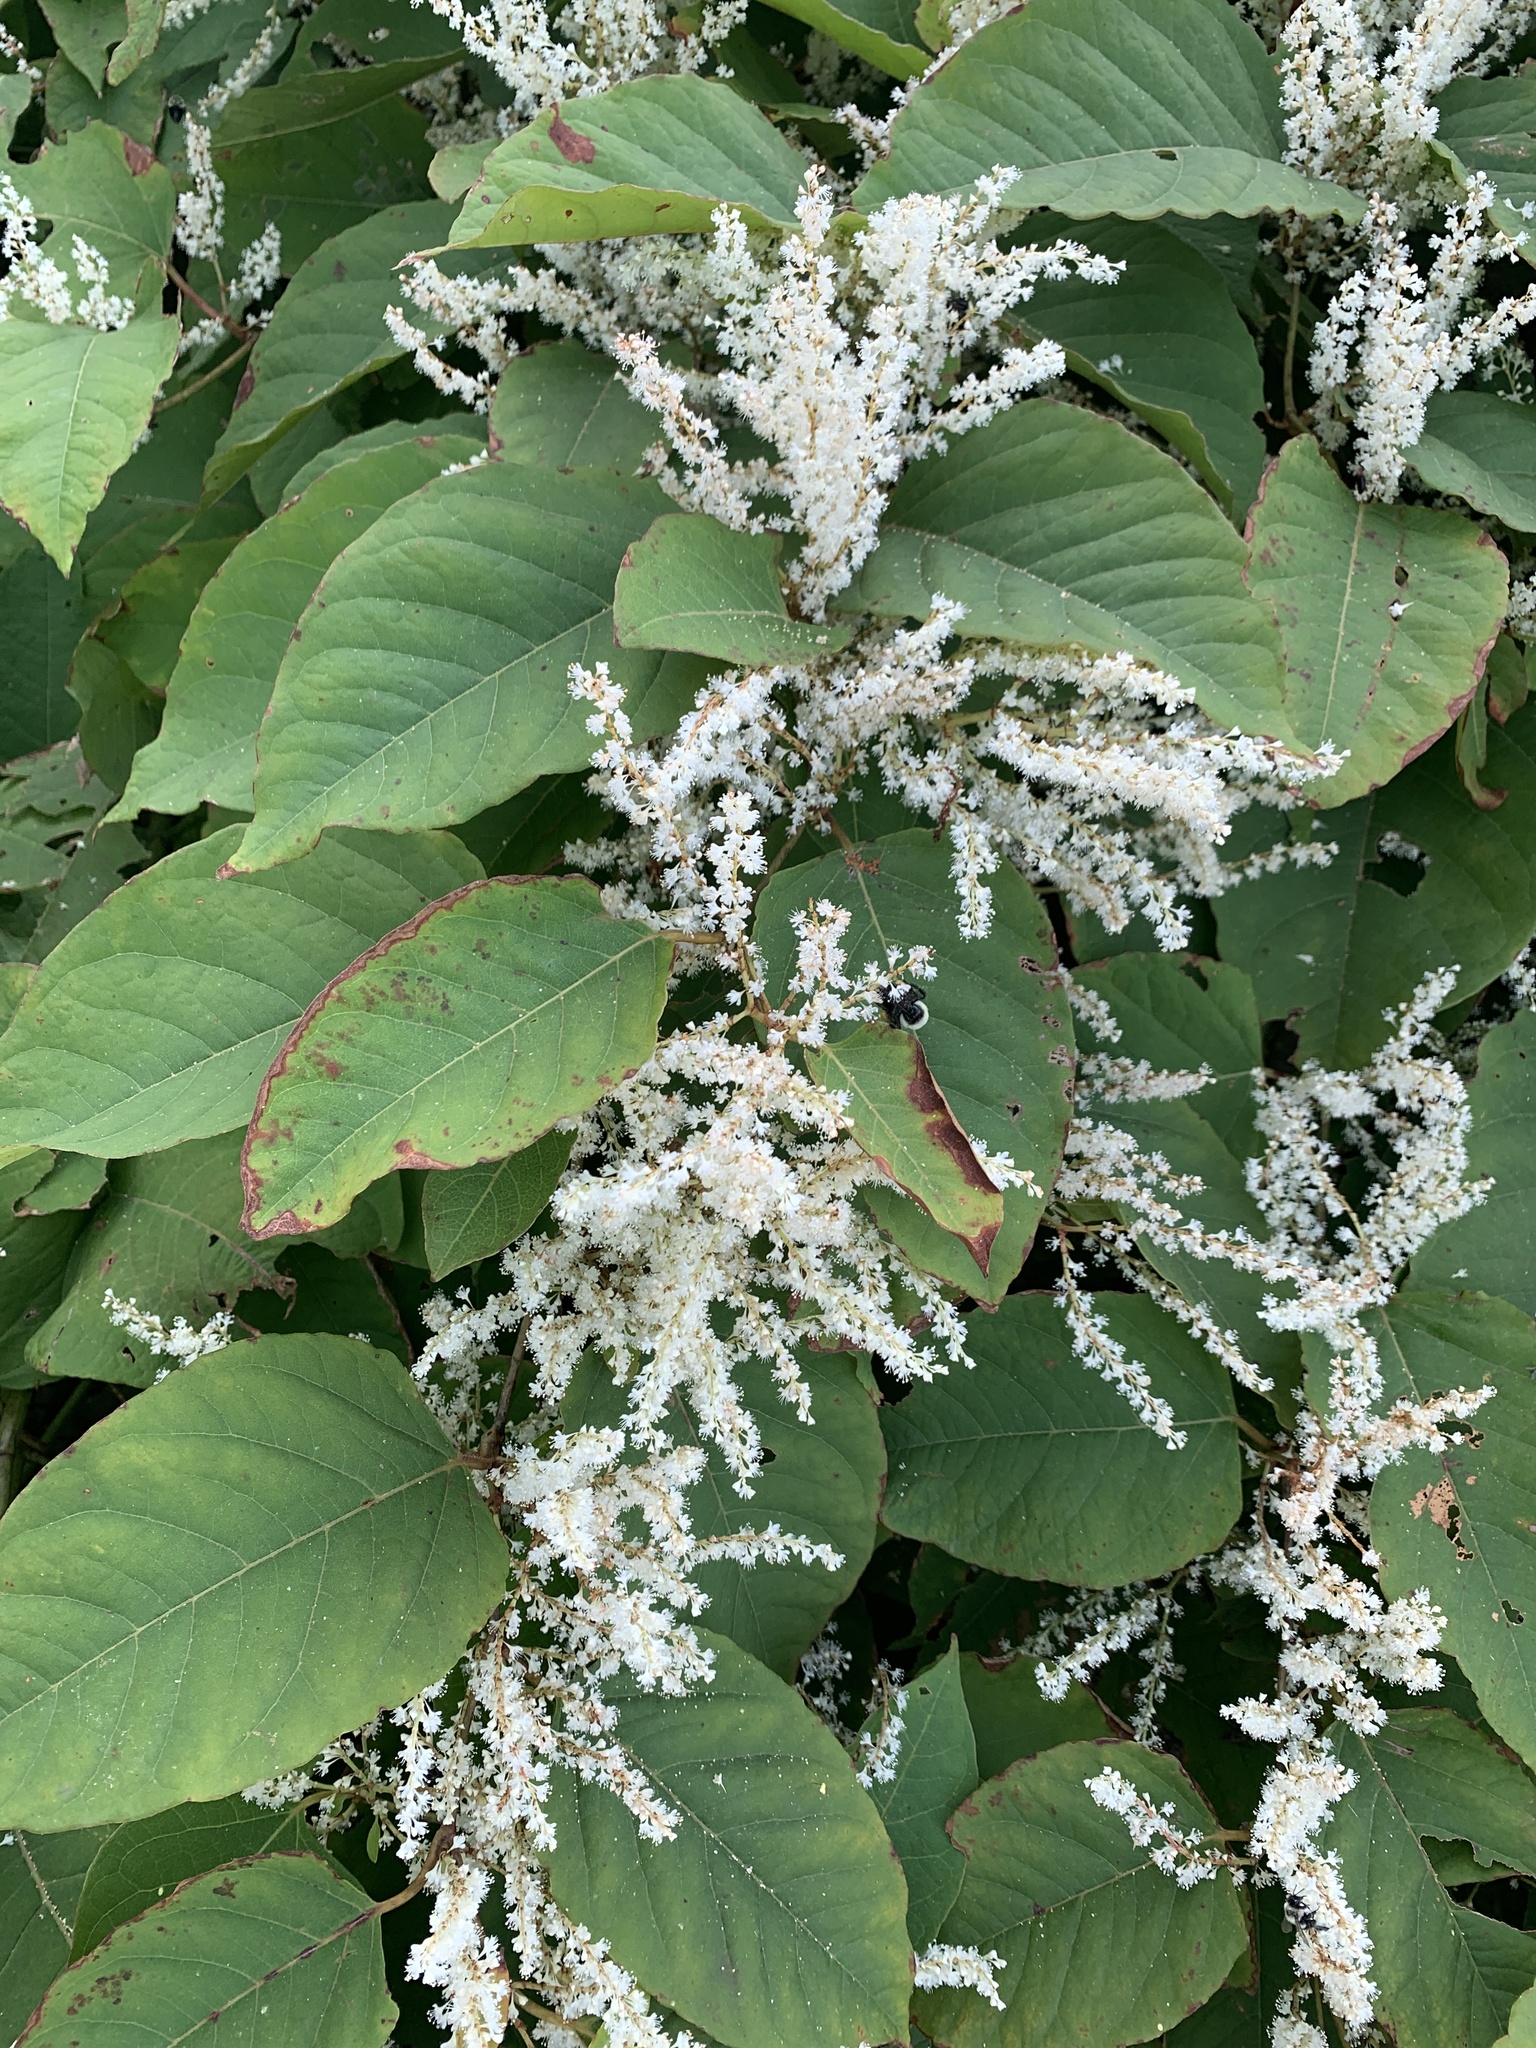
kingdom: Plantae
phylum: Tracheophyta
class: Magnoliopsida
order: Caryophyllales
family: Polygonaceae
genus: Reynoutria
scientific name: Reynoutria japonica
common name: Japanese knotweed
